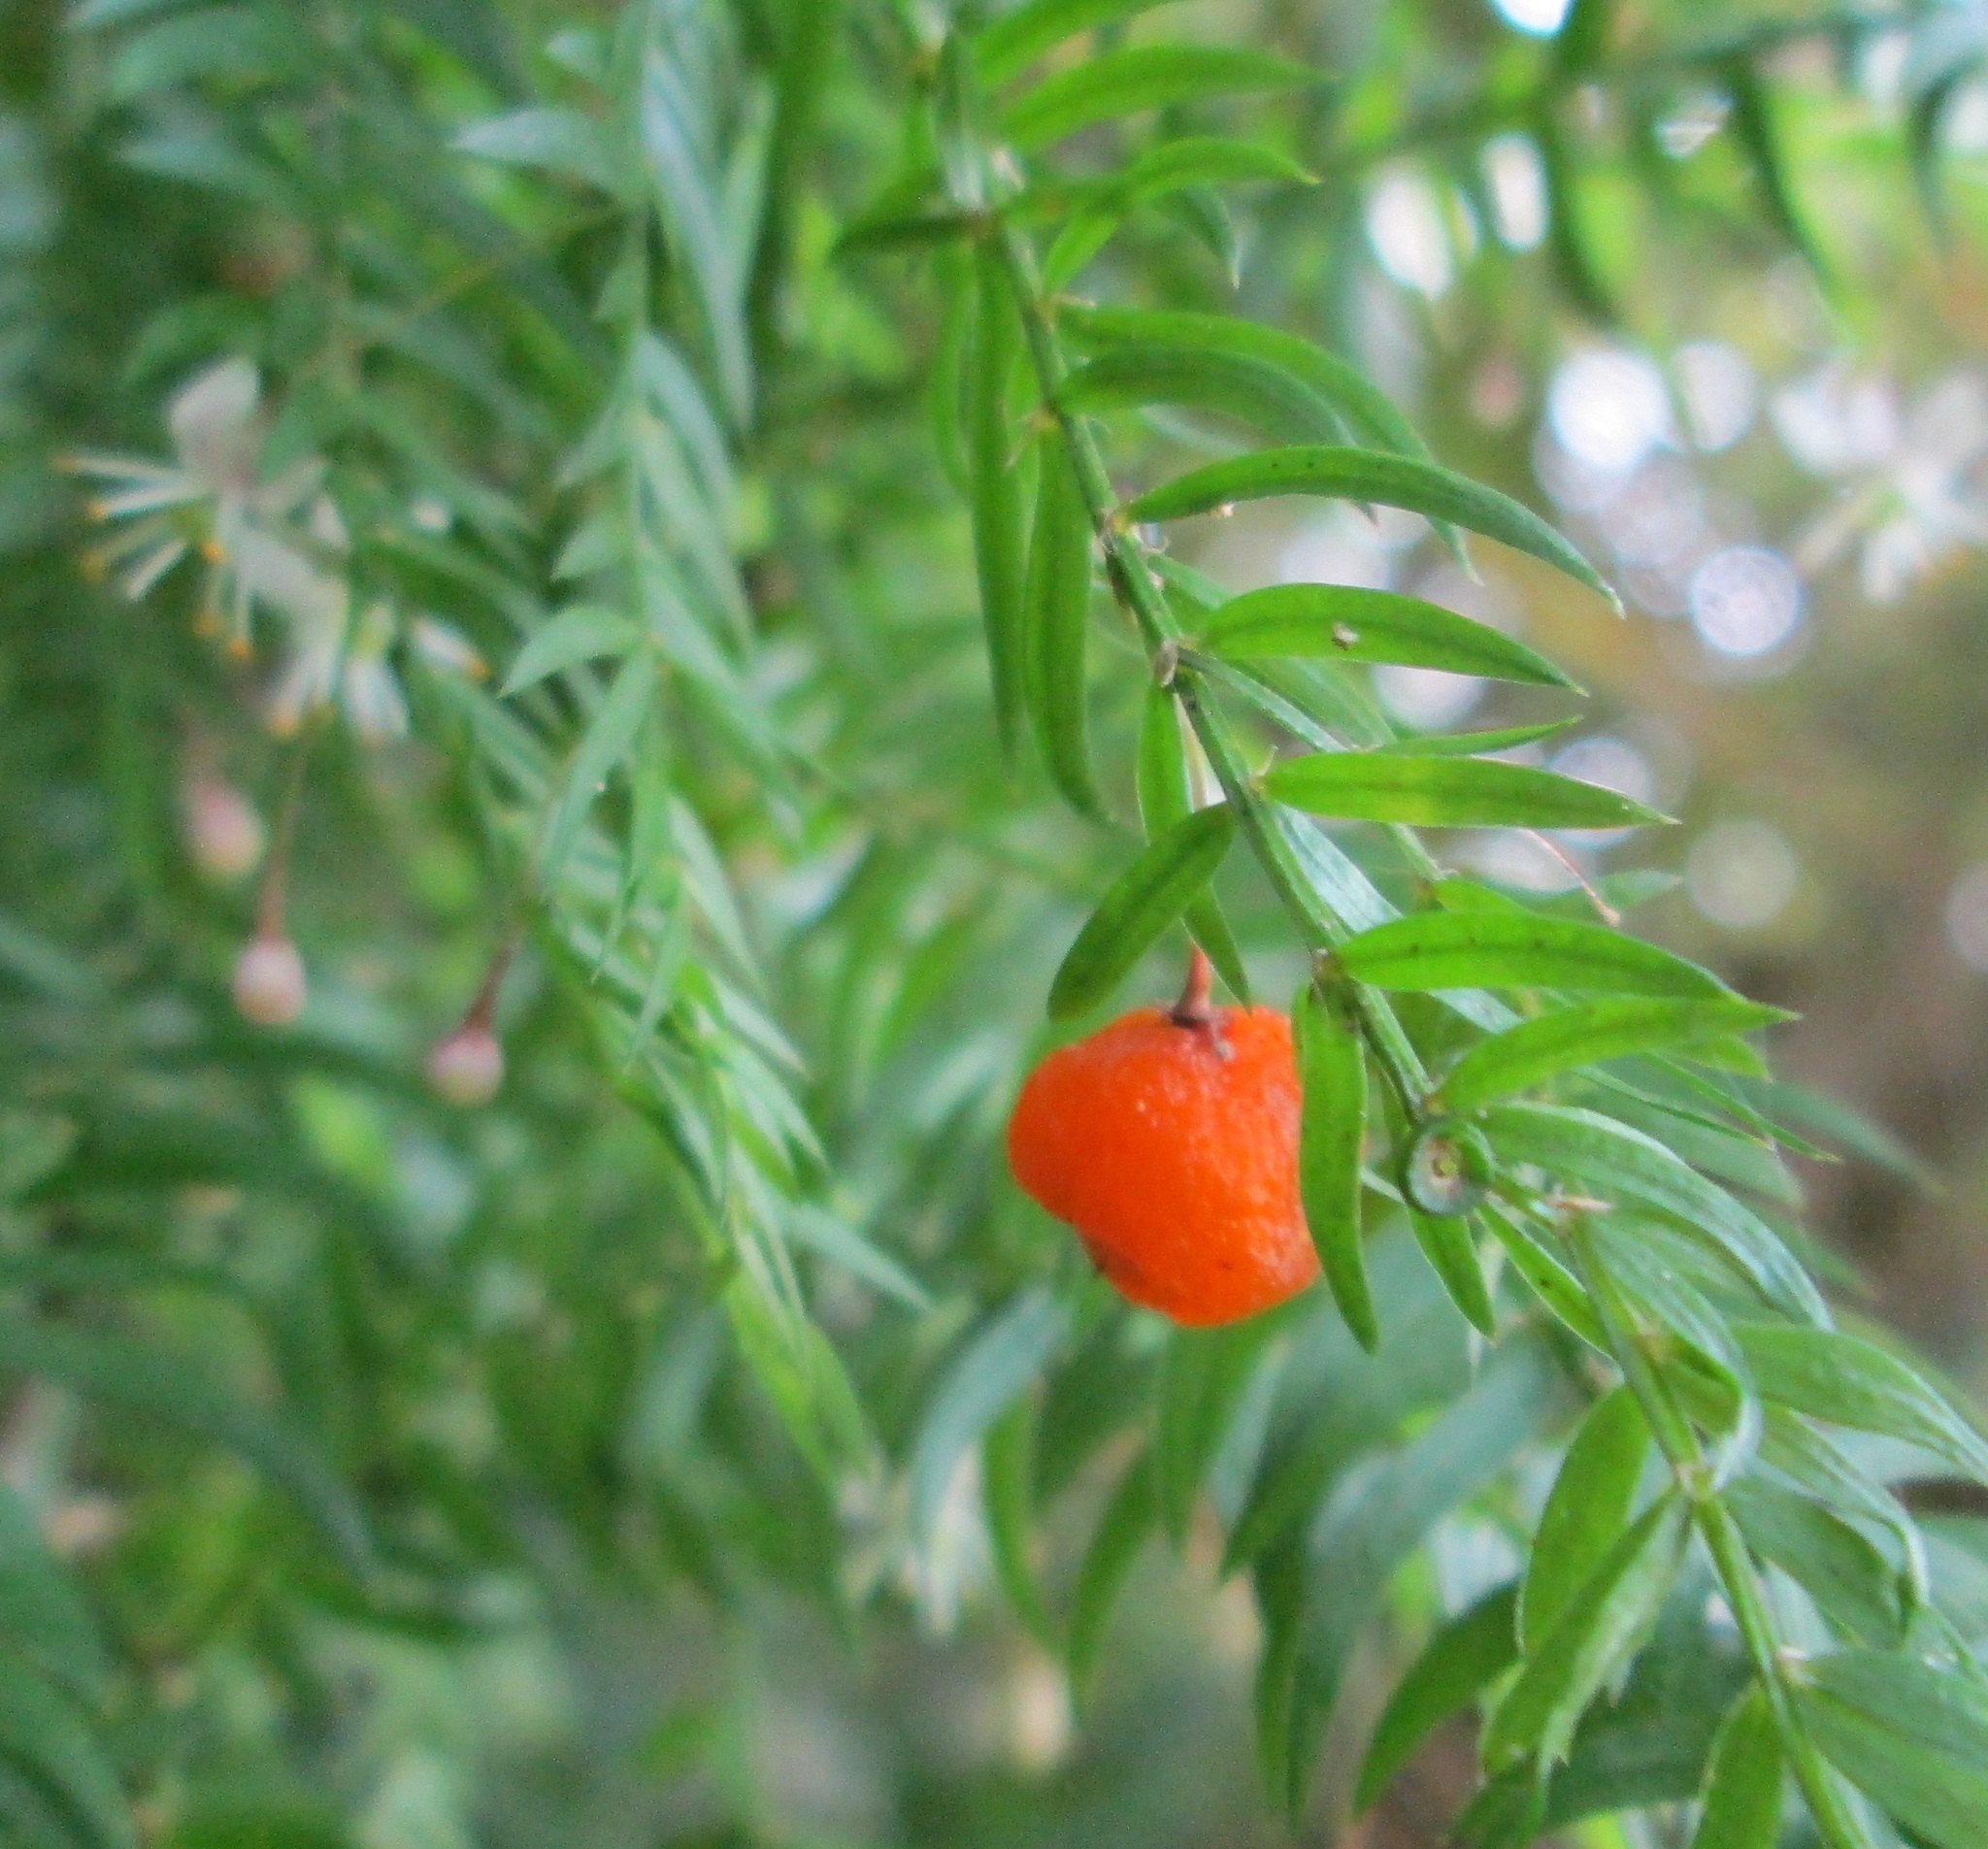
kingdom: Plantae
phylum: Tracheophyta
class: Liliopsida
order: Asparagales
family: Asparagaceae
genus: Asparagus
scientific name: Asparagus scandens
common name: Asparagus-fern
